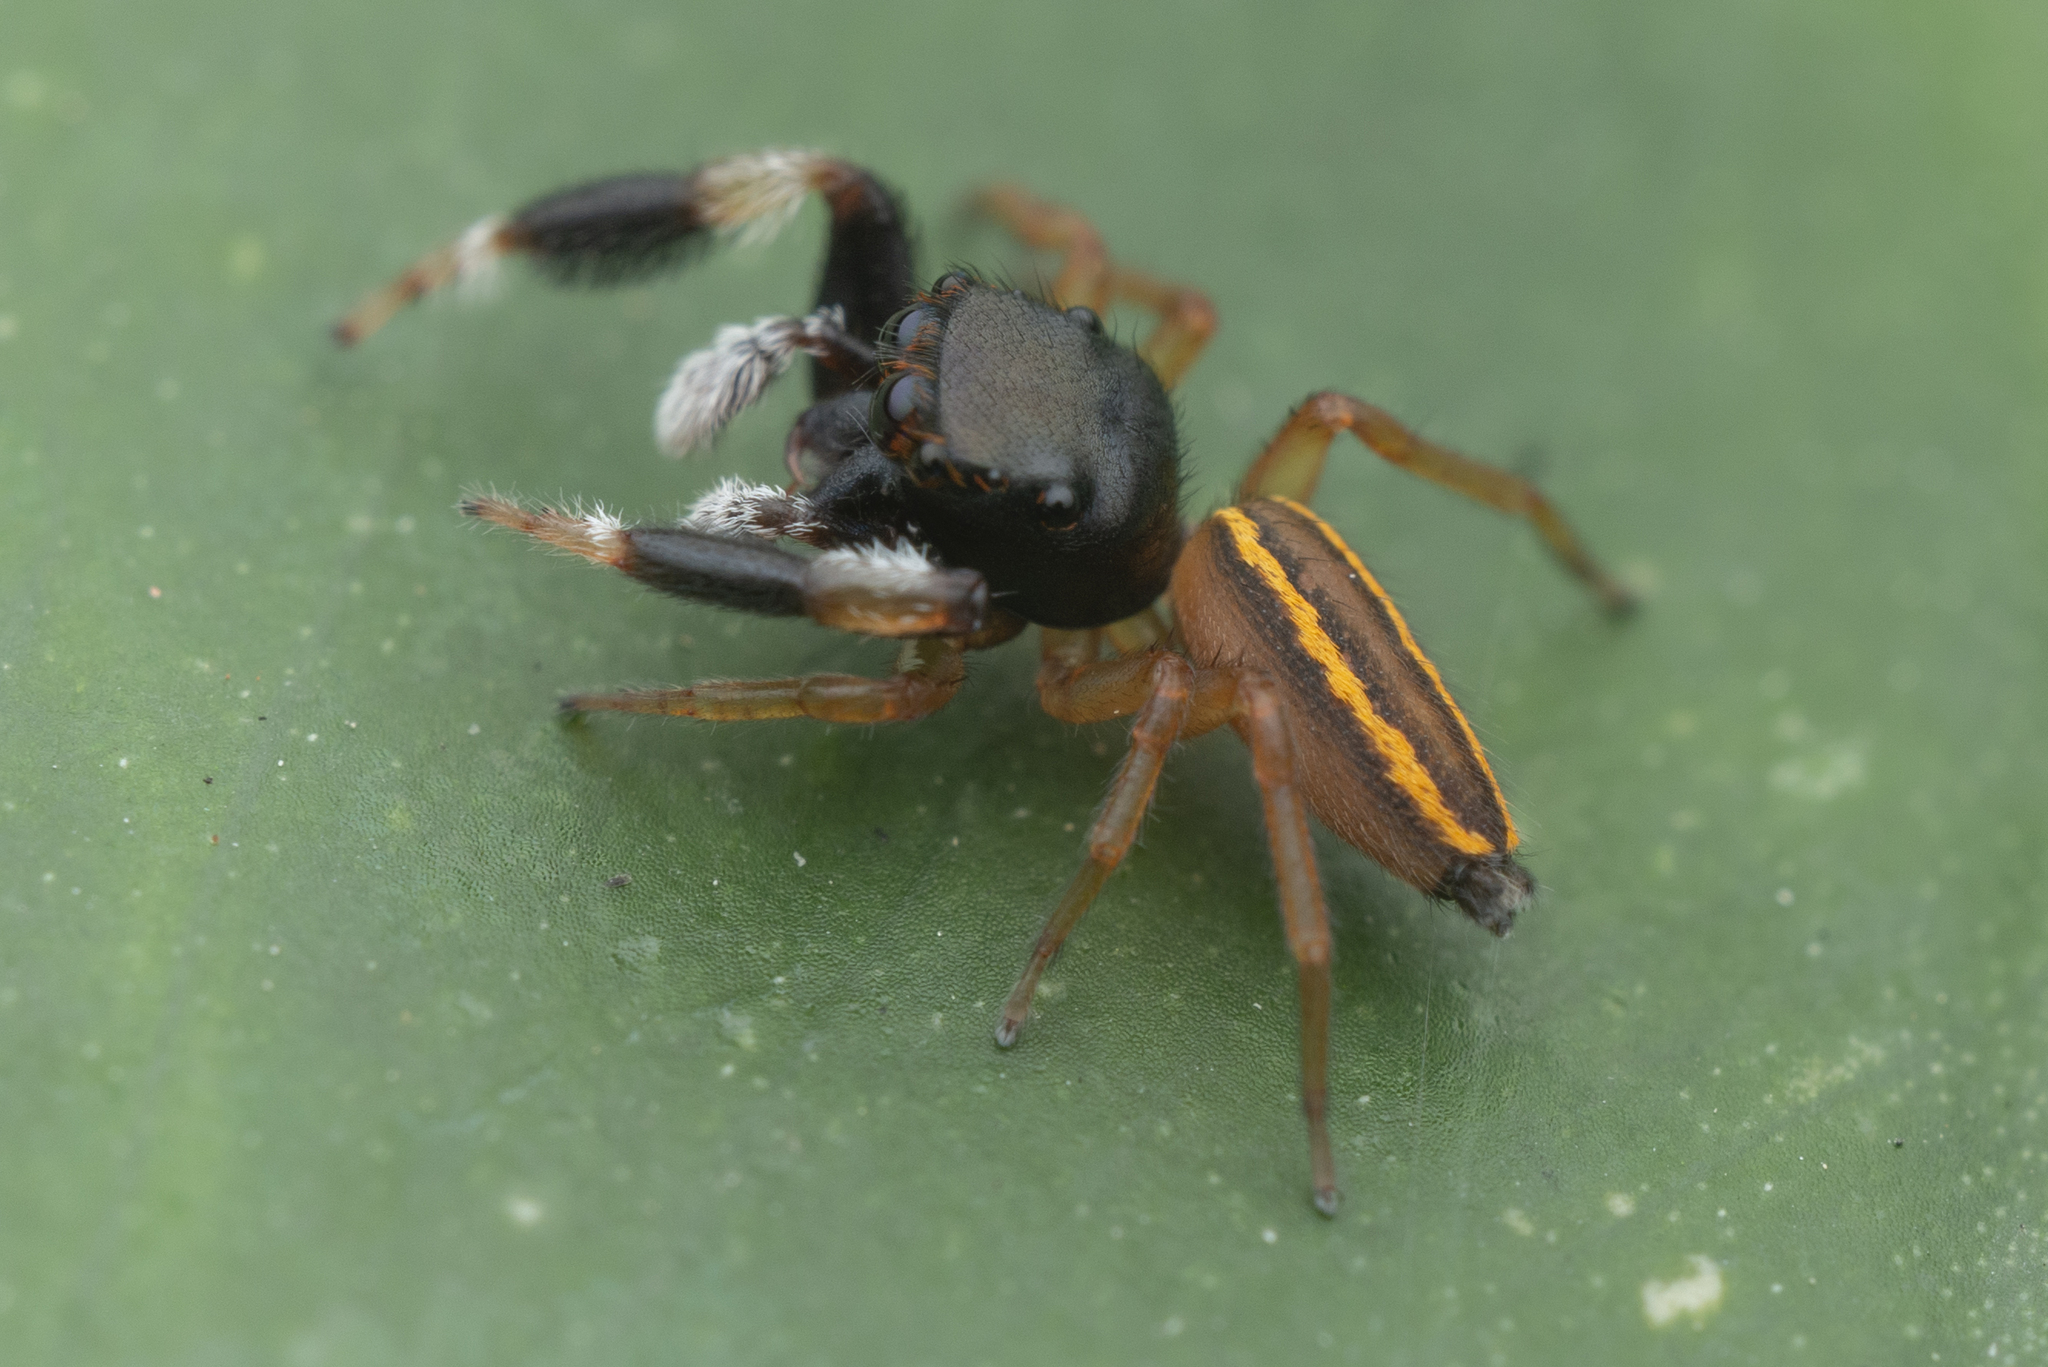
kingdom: Animalia
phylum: Arthropoda
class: Arachnida
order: Araneae
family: Salticidae
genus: Nungia
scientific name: Nungia epigynalis
